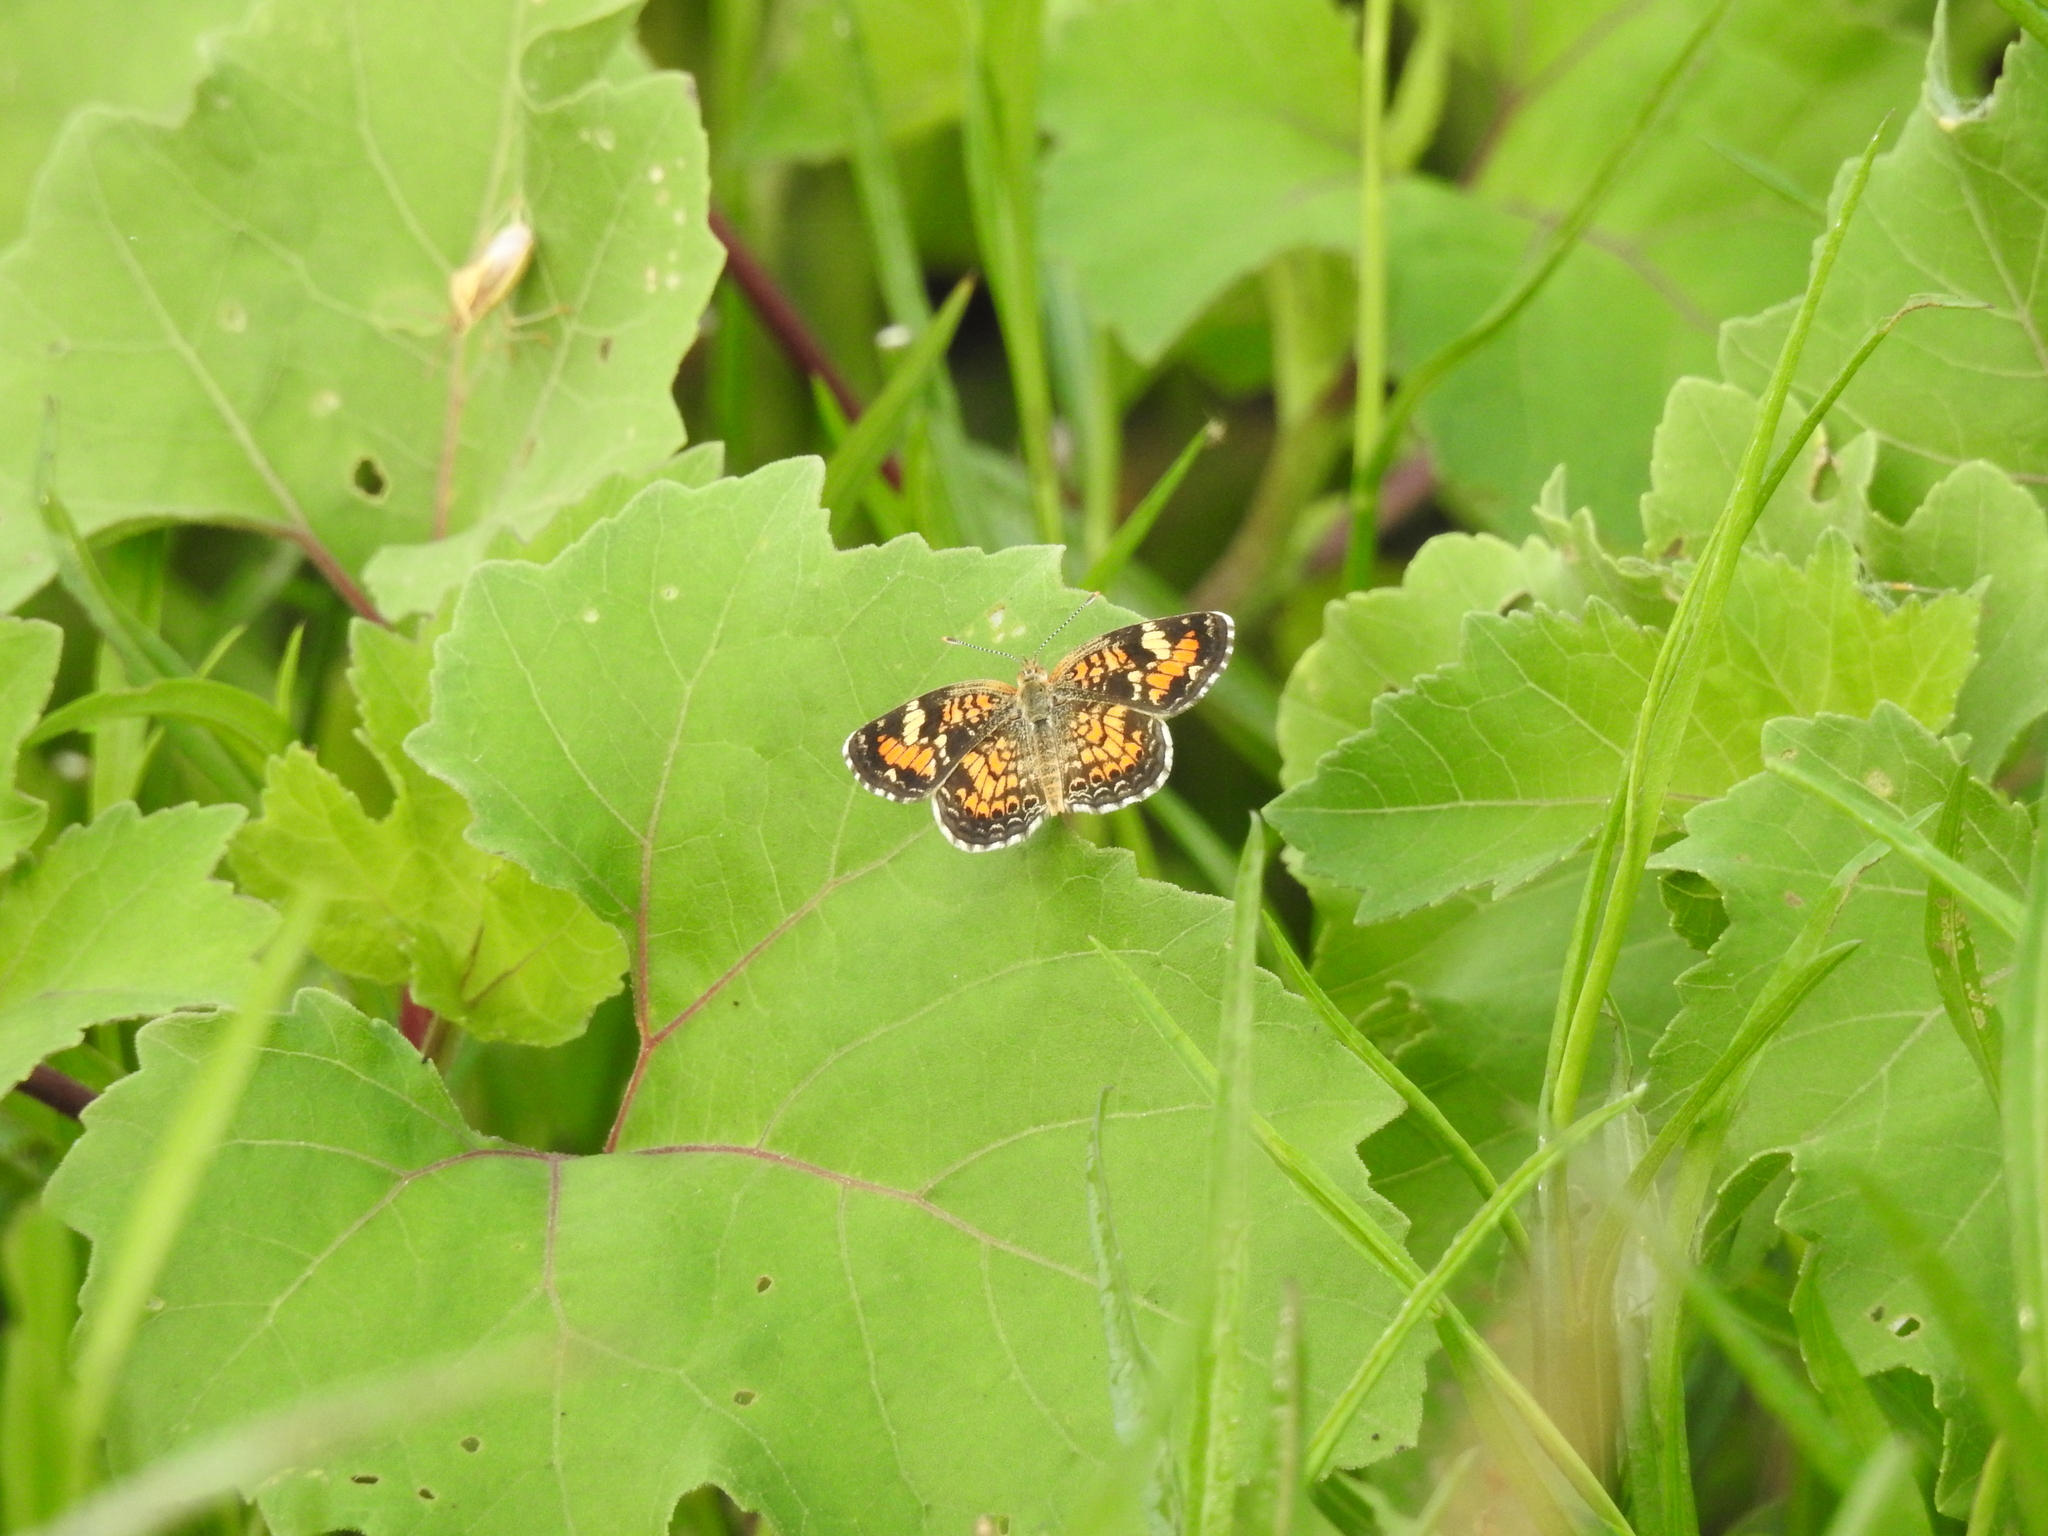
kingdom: Animalia
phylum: Arthropoda
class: Insecta
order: Lepidoptera
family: Nymphalidae
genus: Phyciodes
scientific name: Phyciodes phaon
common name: Phaon crescent
